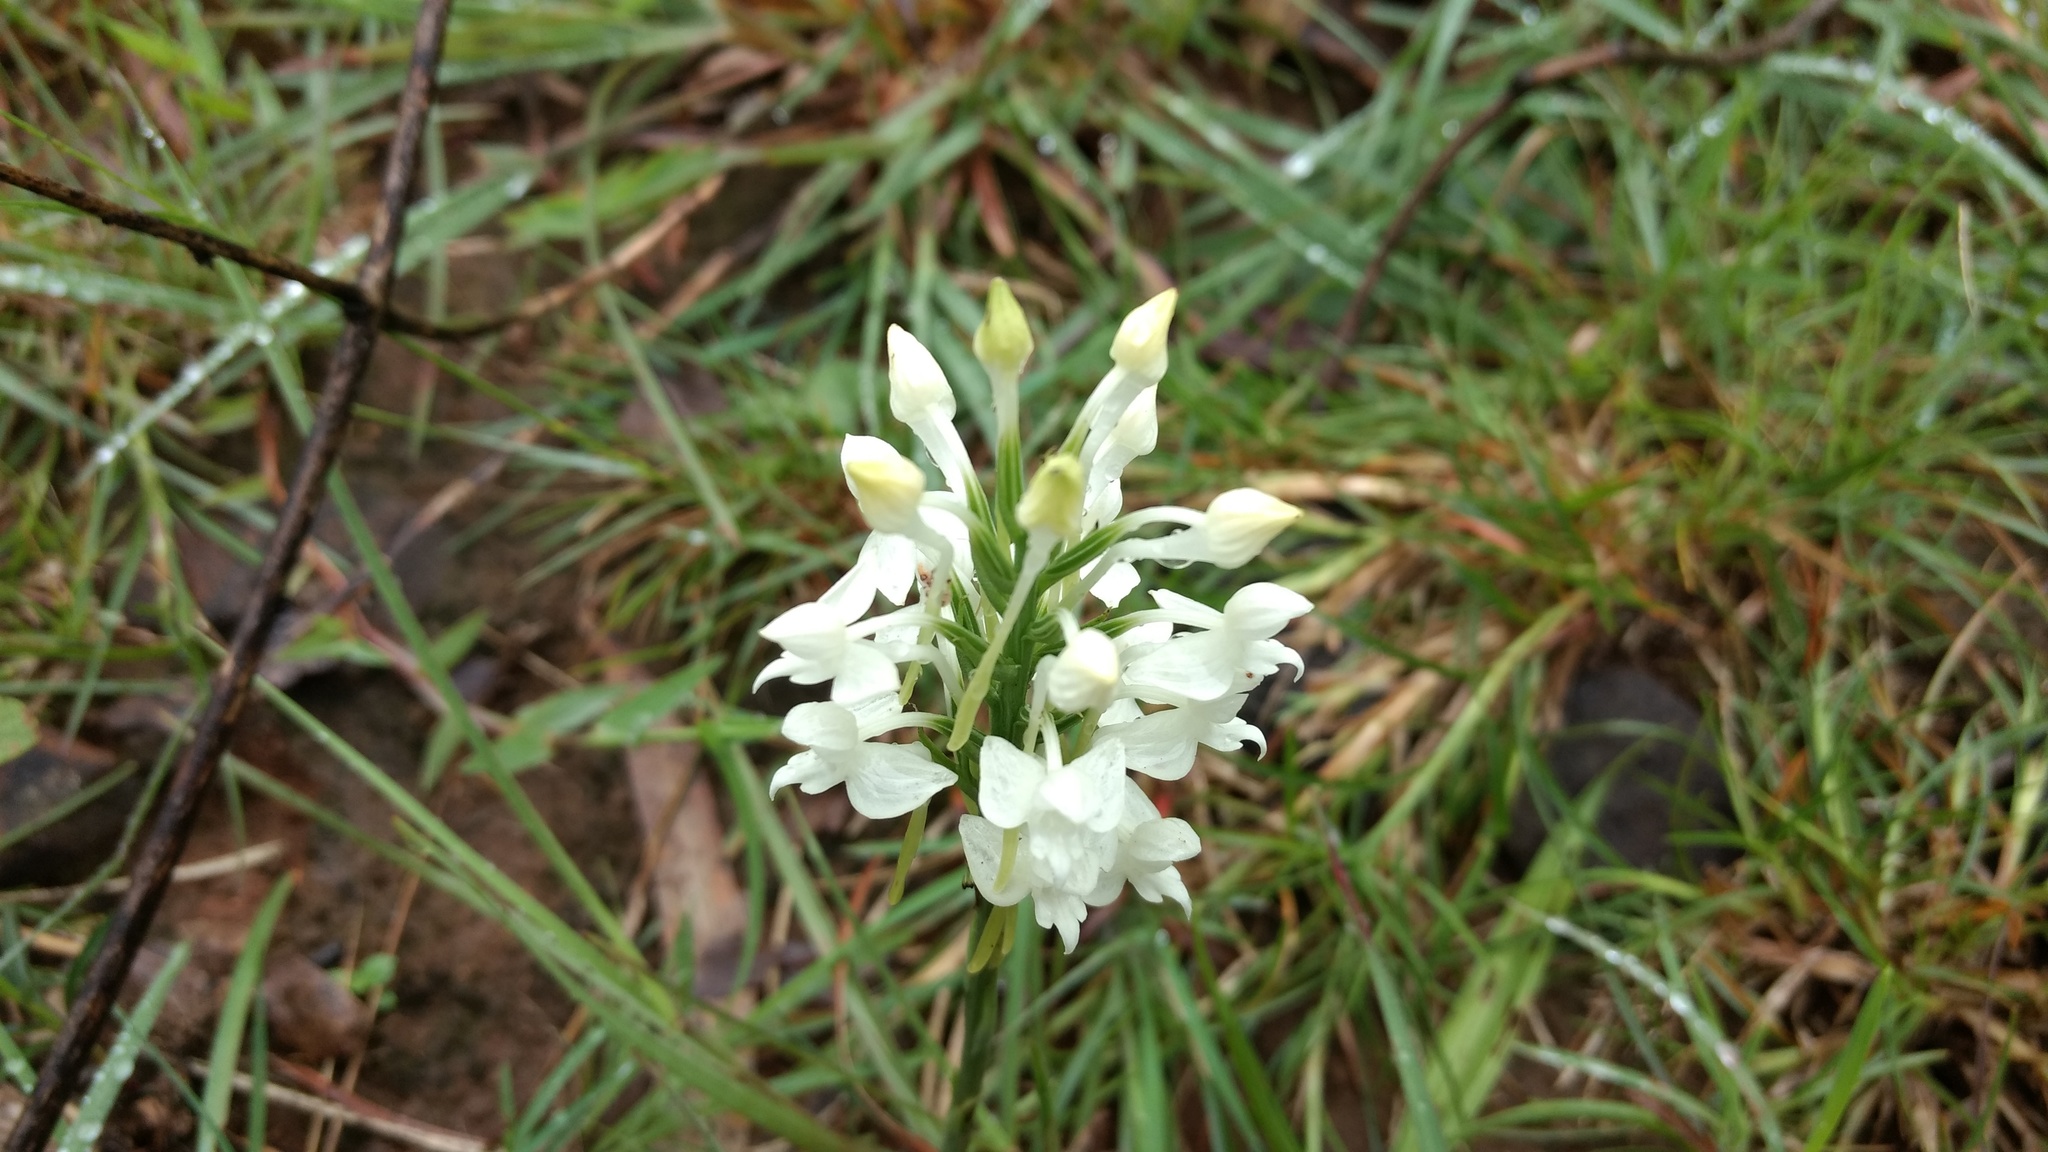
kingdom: Plantae
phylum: Tracheophyta
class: Liliopsida
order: Asparagales
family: Orchidaceae
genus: Habenaria
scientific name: Habenaria roxburghii
